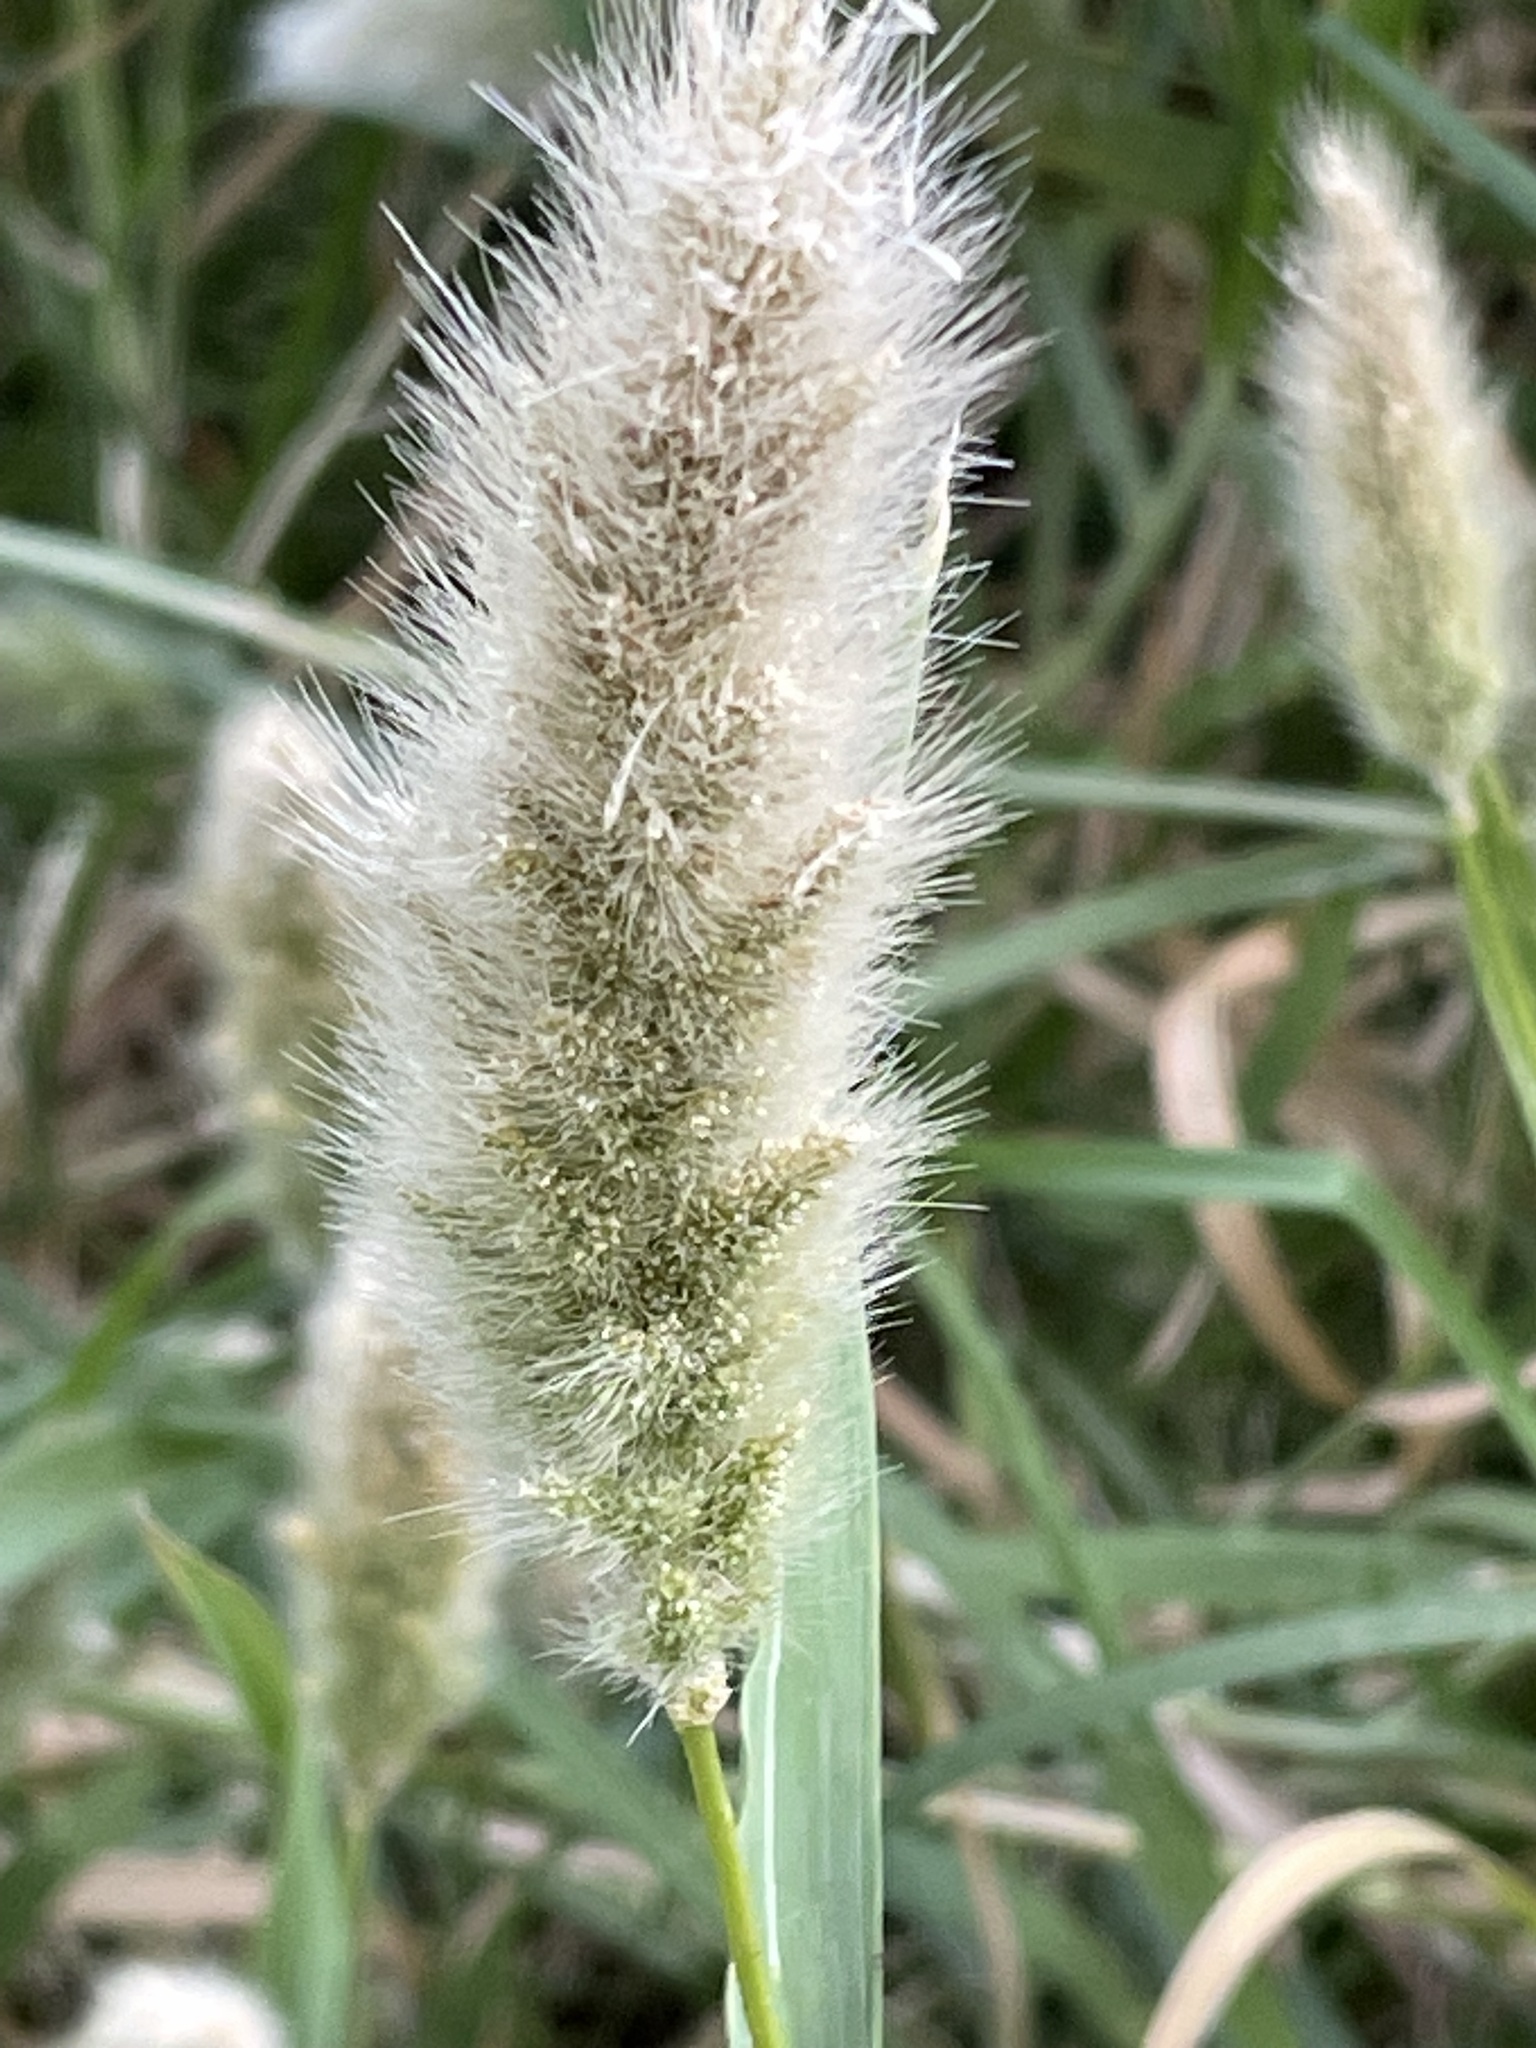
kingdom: Plantae
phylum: Tracheophyta
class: Liliopsida
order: Poales
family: Poaceae
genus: Polypogon
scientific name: Polypogon monspeliensis
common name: Annual rabbitsfoot grass
